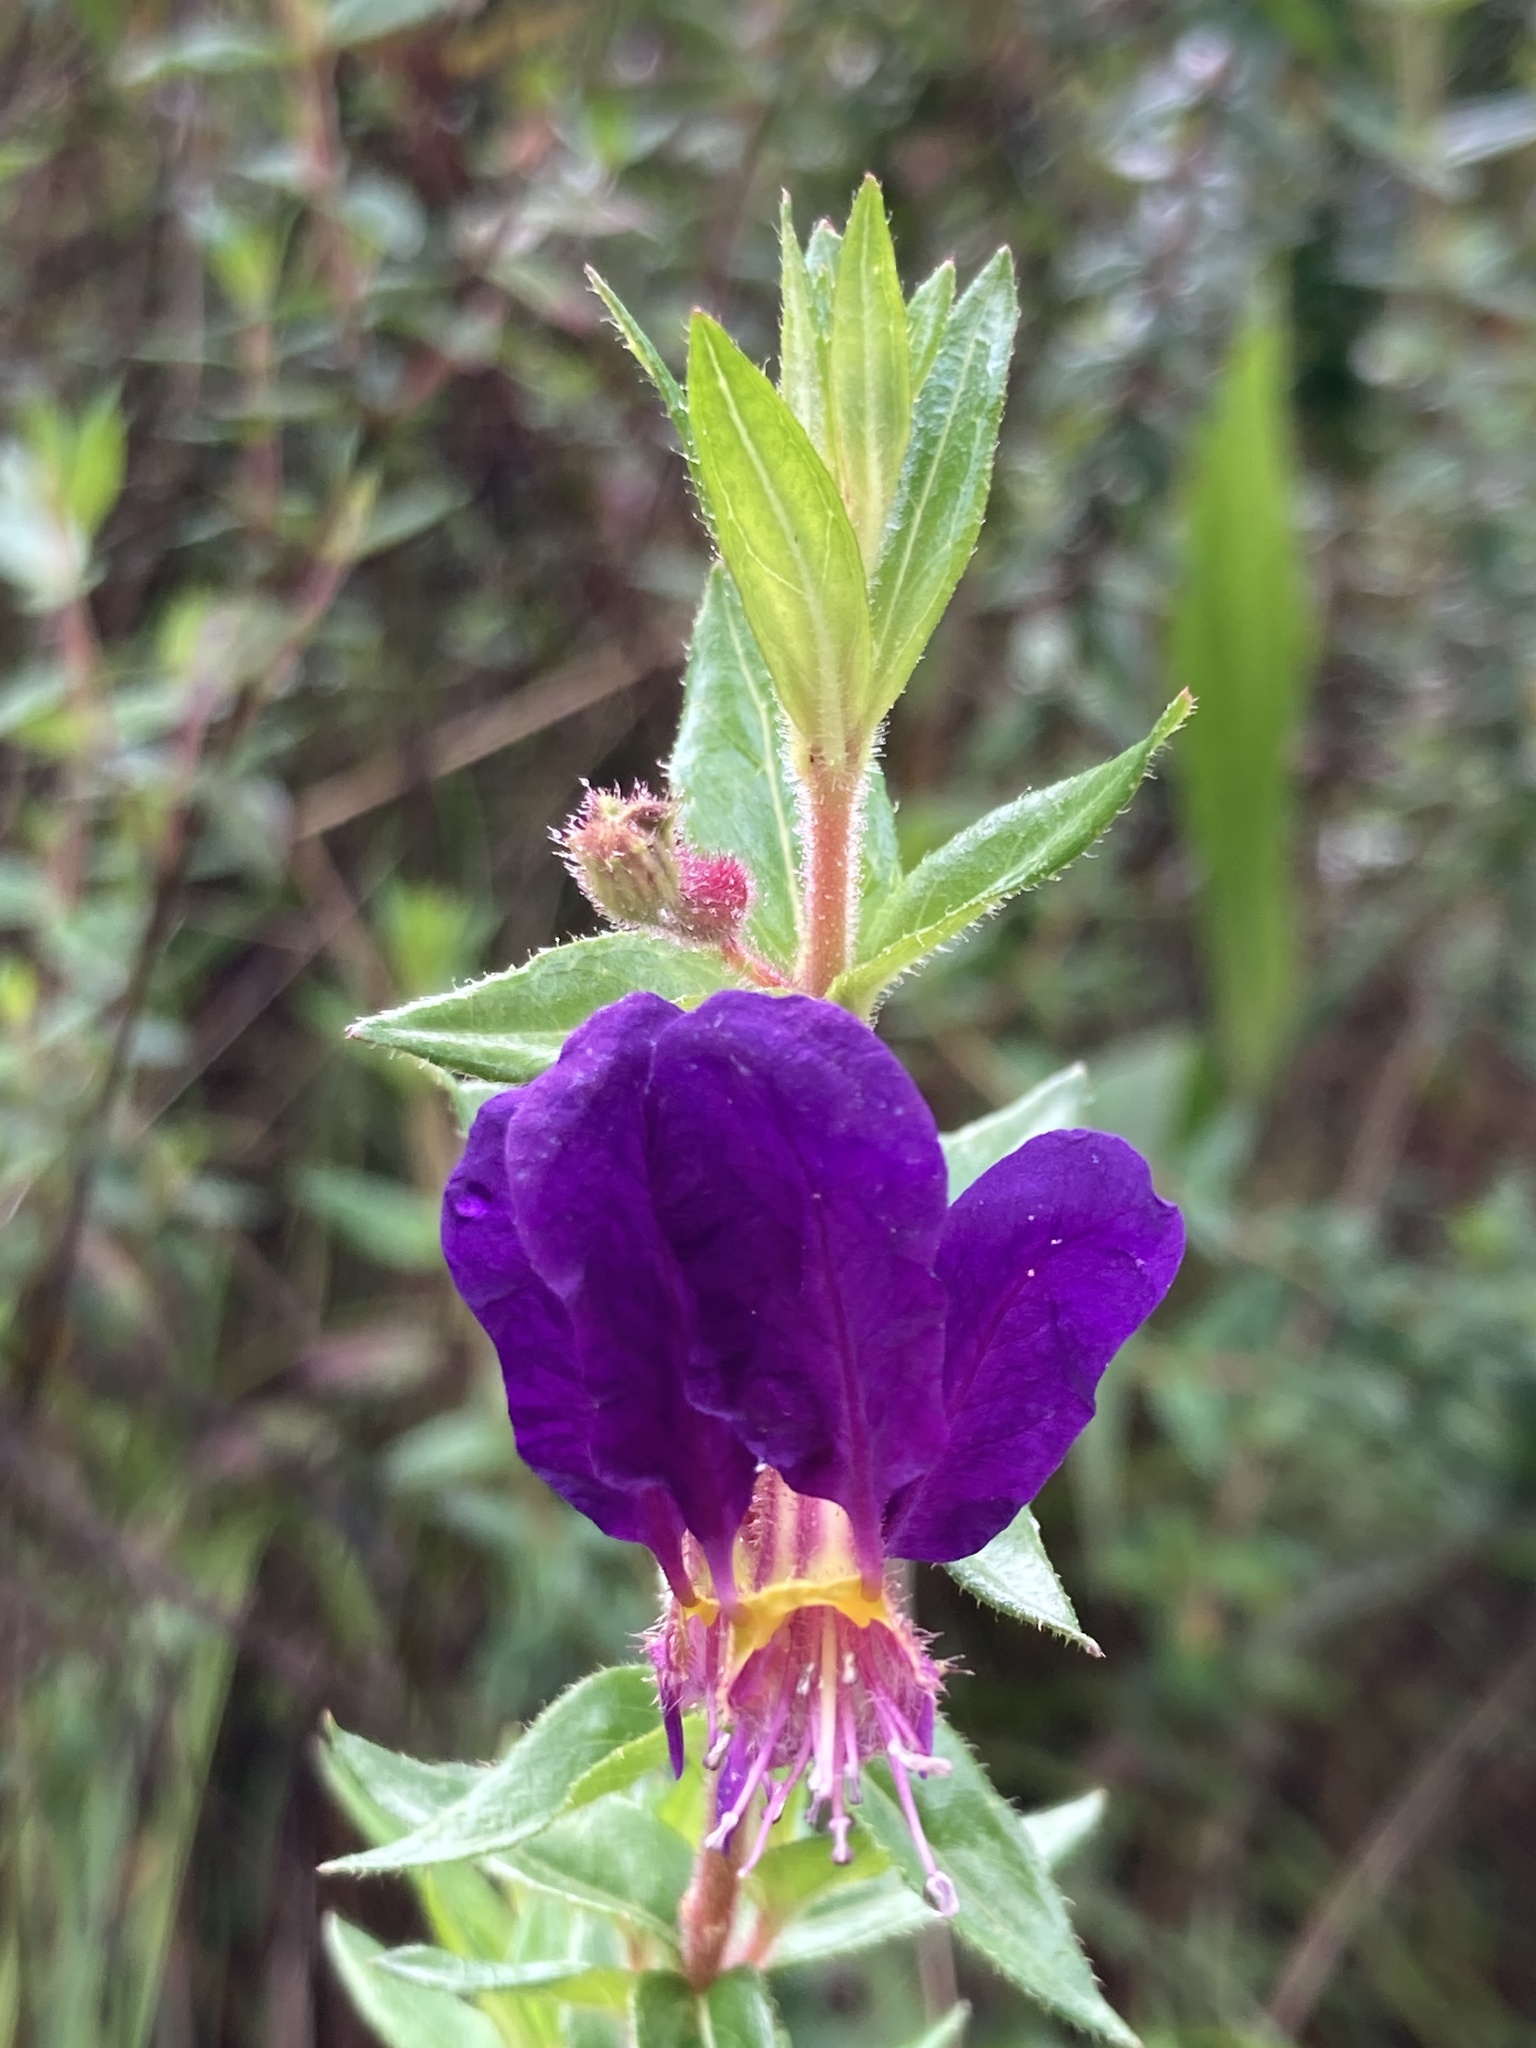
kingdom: Plantae
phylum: Tracheophyta
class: Magnoliopsida
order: Myrtales
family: Lythraceae
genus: Cuphea
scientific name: Cuphea dipetala
